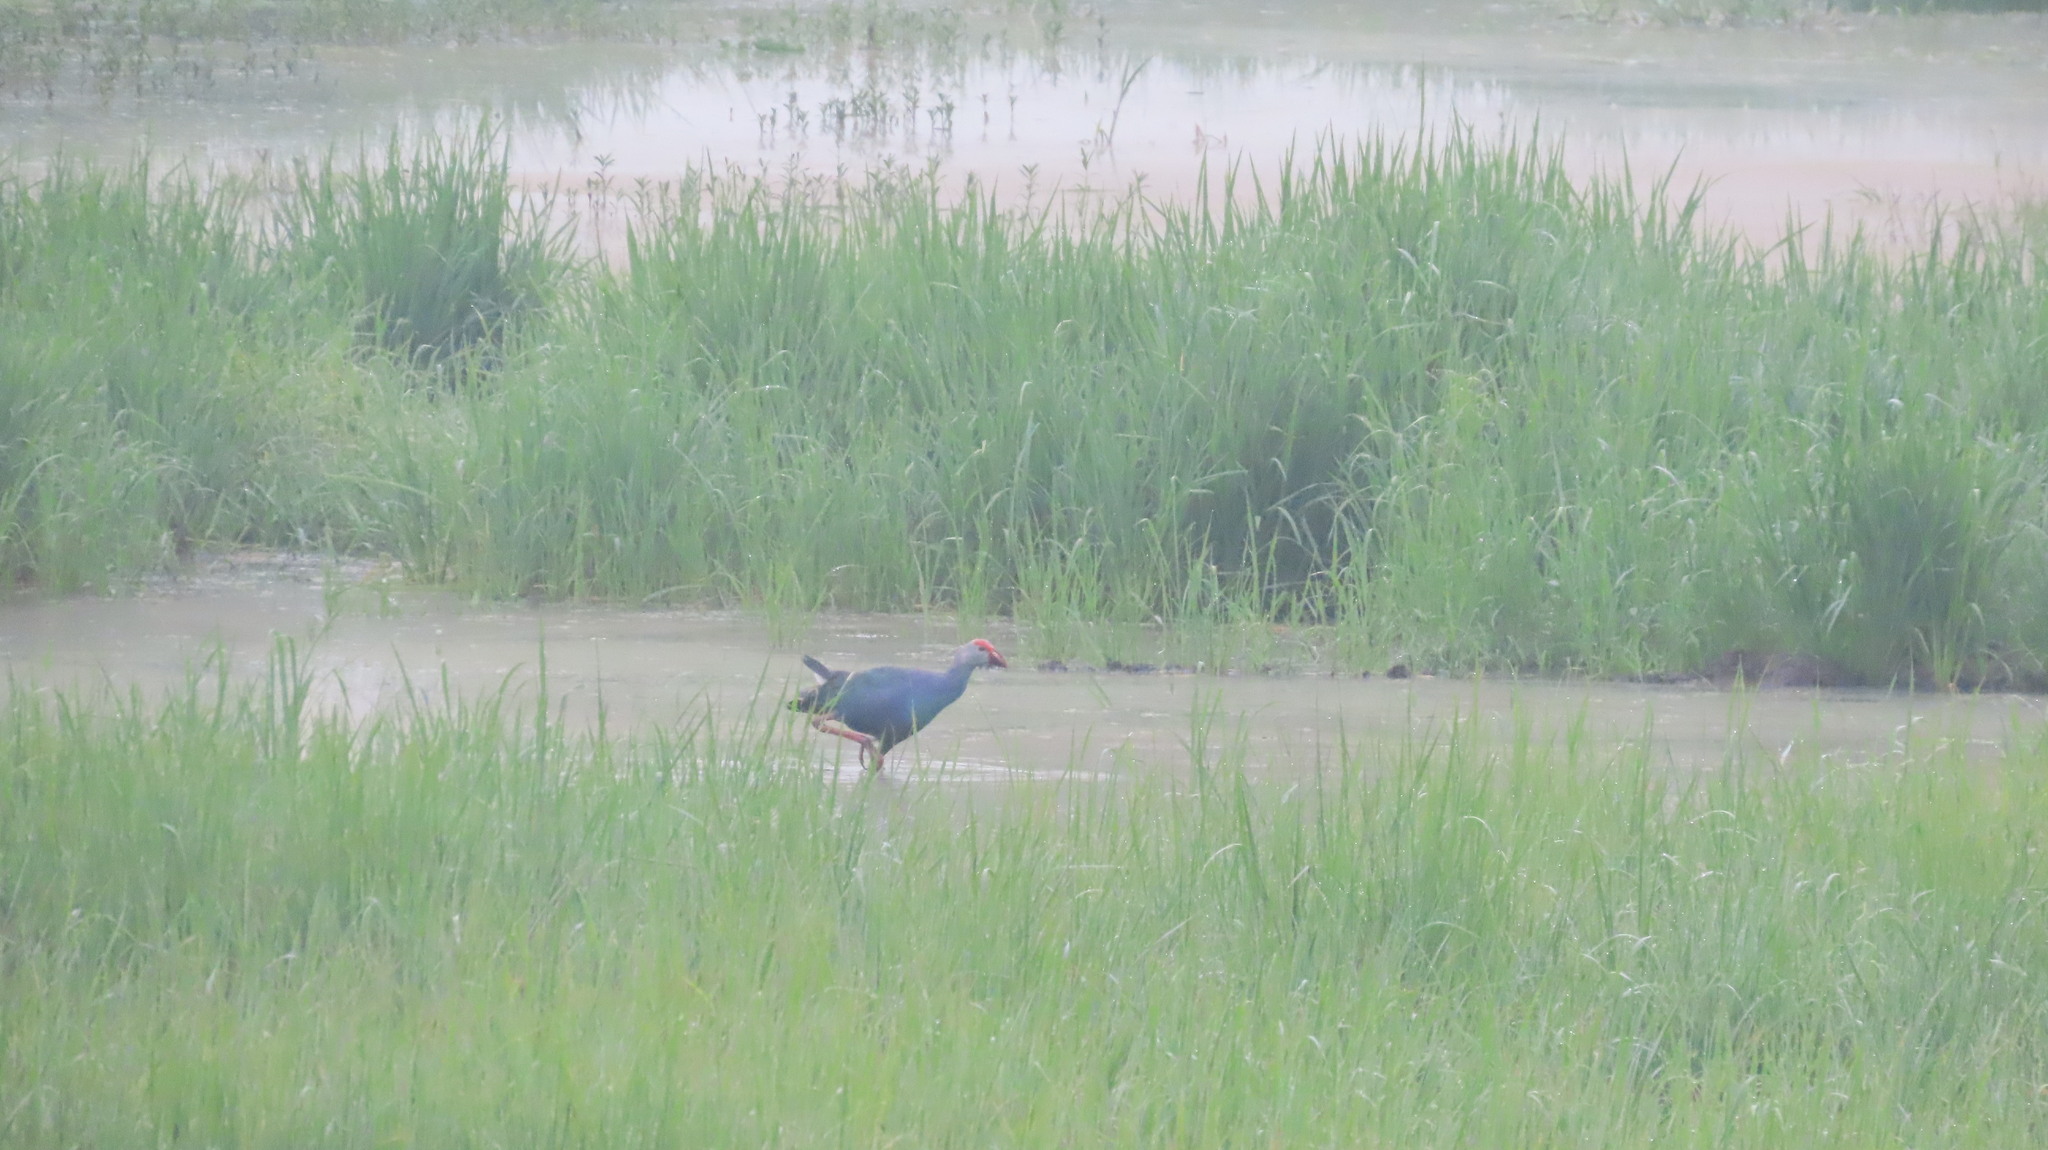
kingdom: Animalia
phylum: Chordata
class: Aves
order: Gruiformes
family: Rallidae
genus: Porphyrio
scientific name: Porphyrio porphyrio
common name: Purple swamphen
